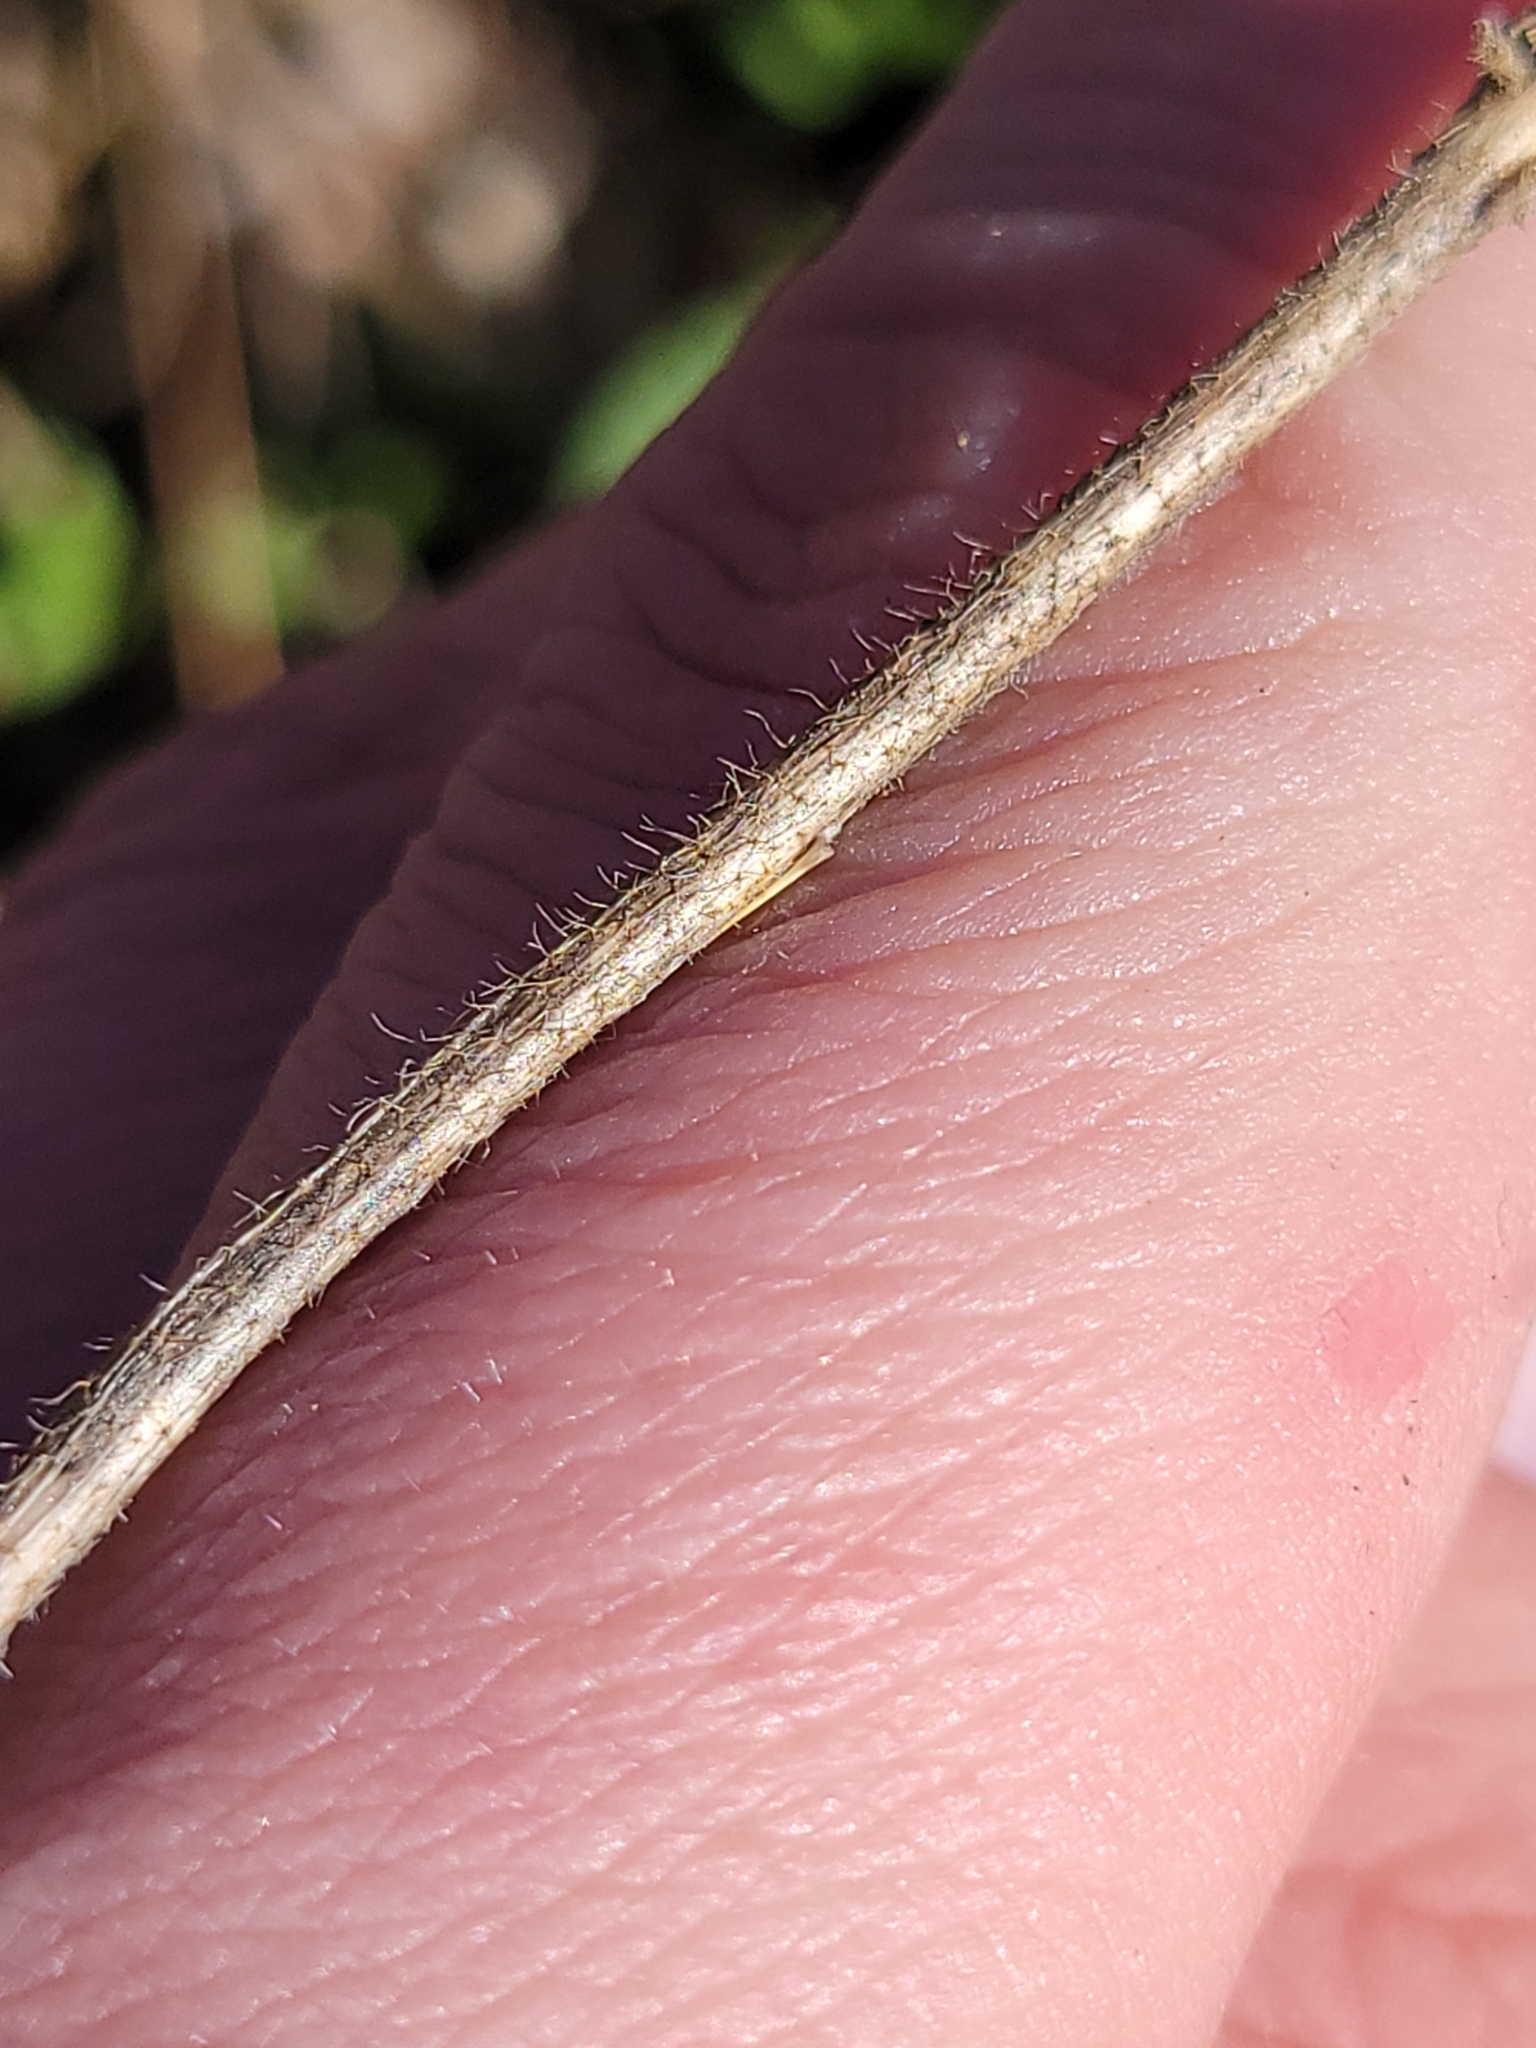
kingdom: Plantae
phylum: Tracheophyta
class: Magnoliopsida
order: Solanales
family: Solanaceae
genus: Solanum
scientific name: Solanum carolinense
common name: Horse-nettle
